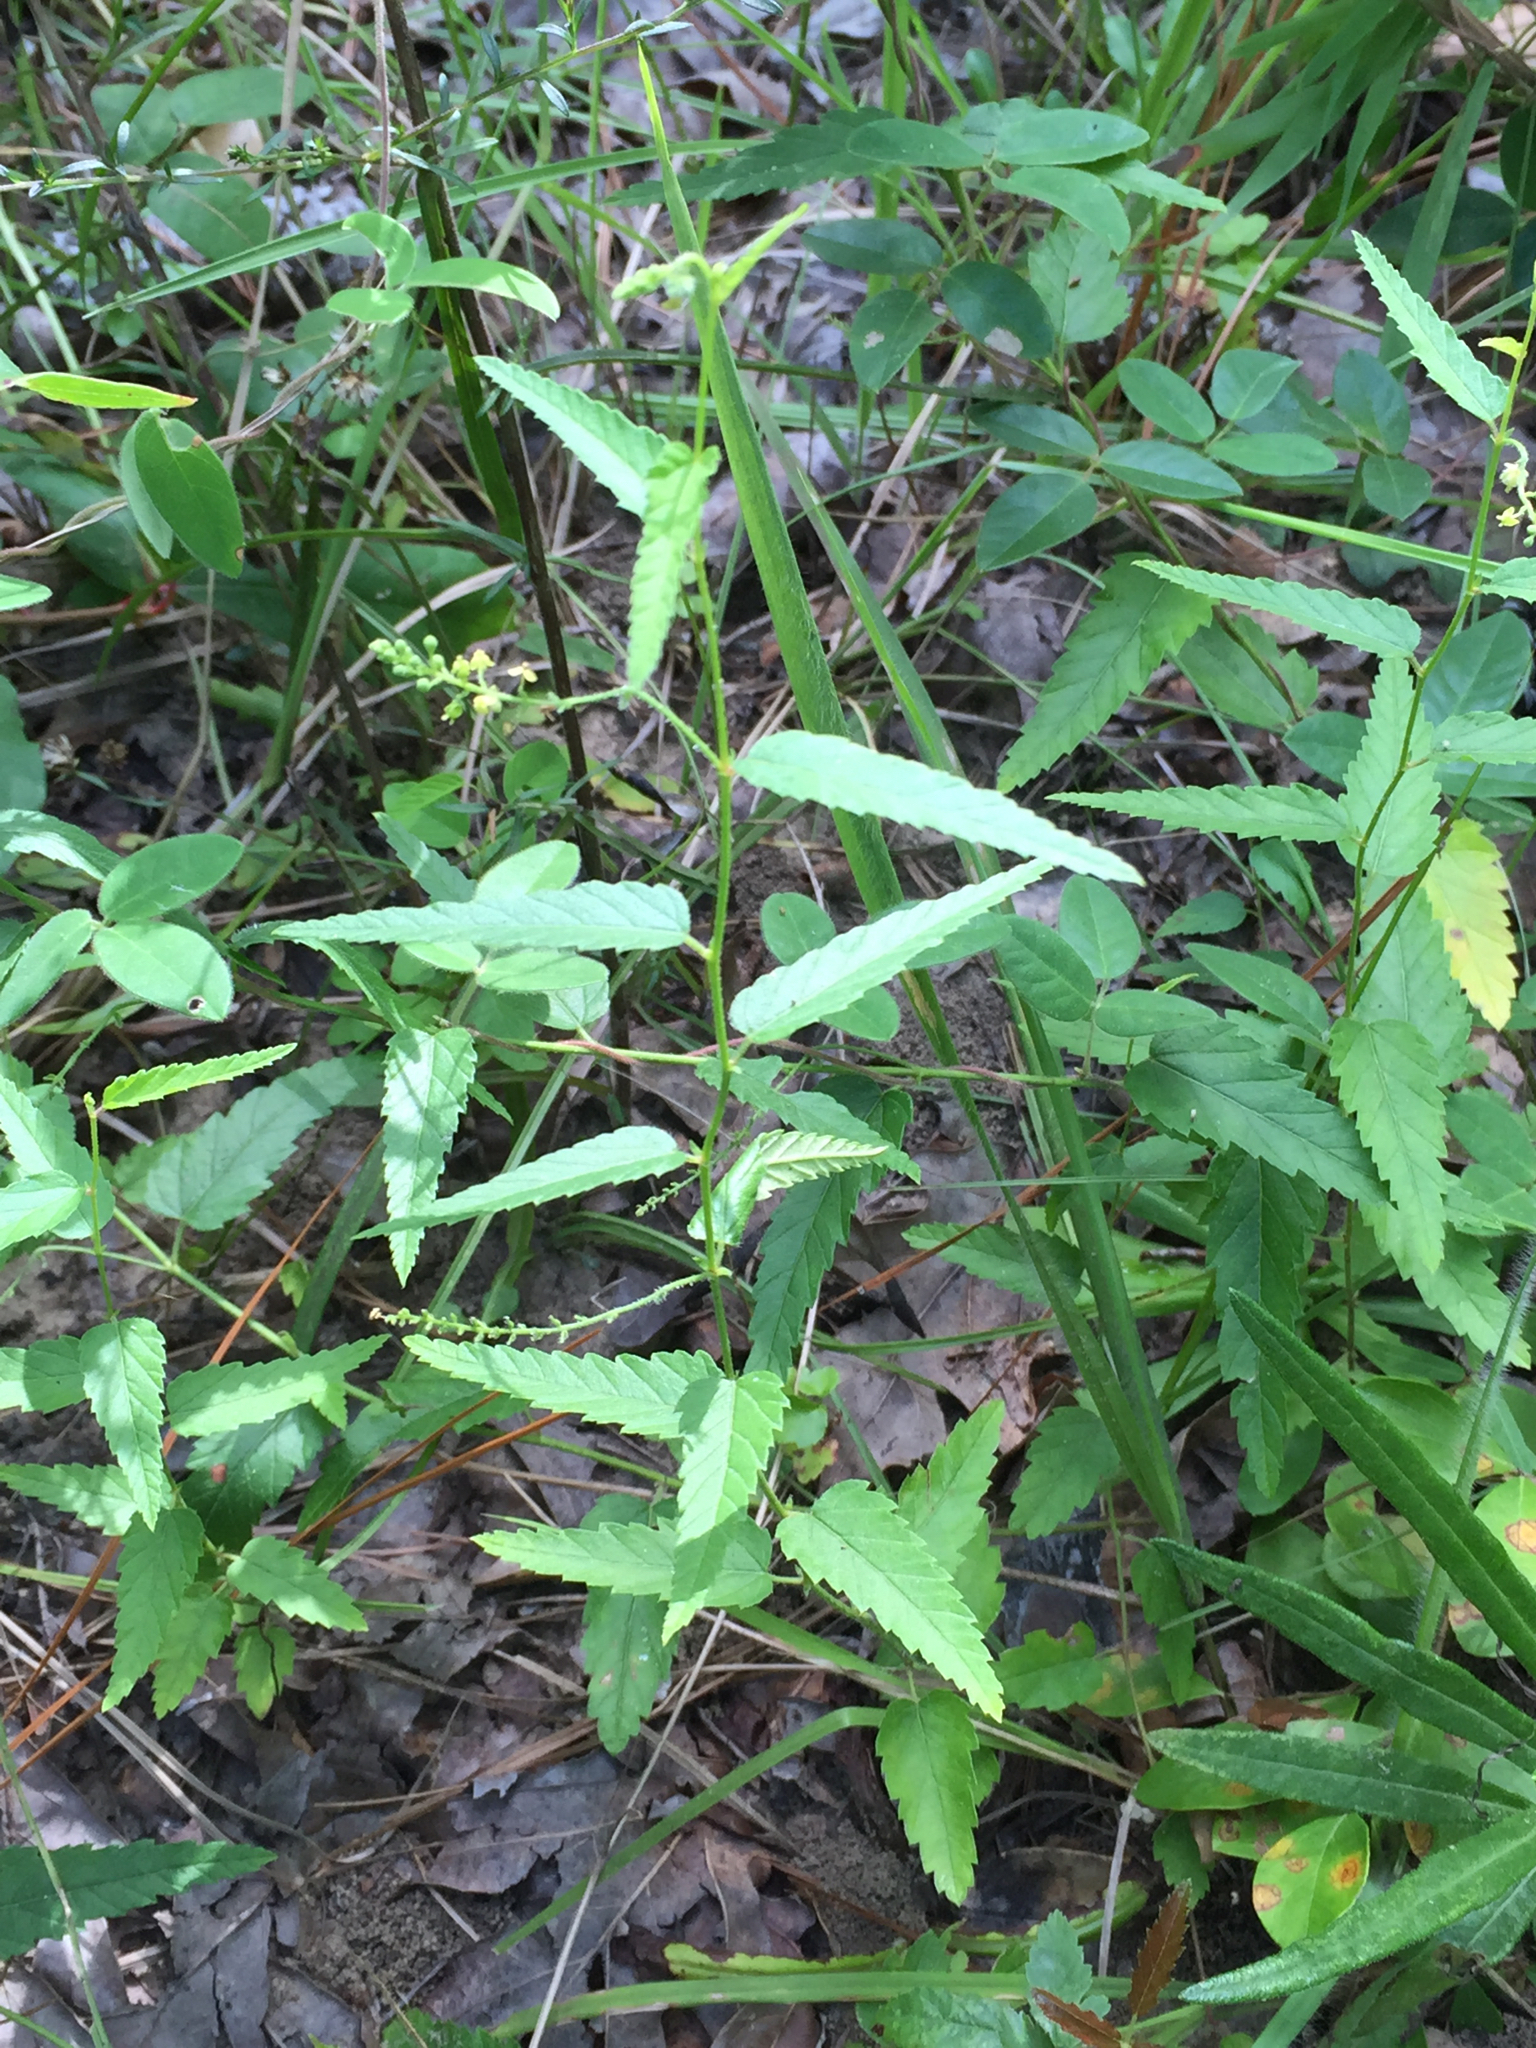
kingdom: Plantae
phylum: Tracheophyta
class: Magnoliopsida
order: Malpighiales
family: Euphorbiaceae
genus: Tragia
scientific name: Tragia urticifolia
